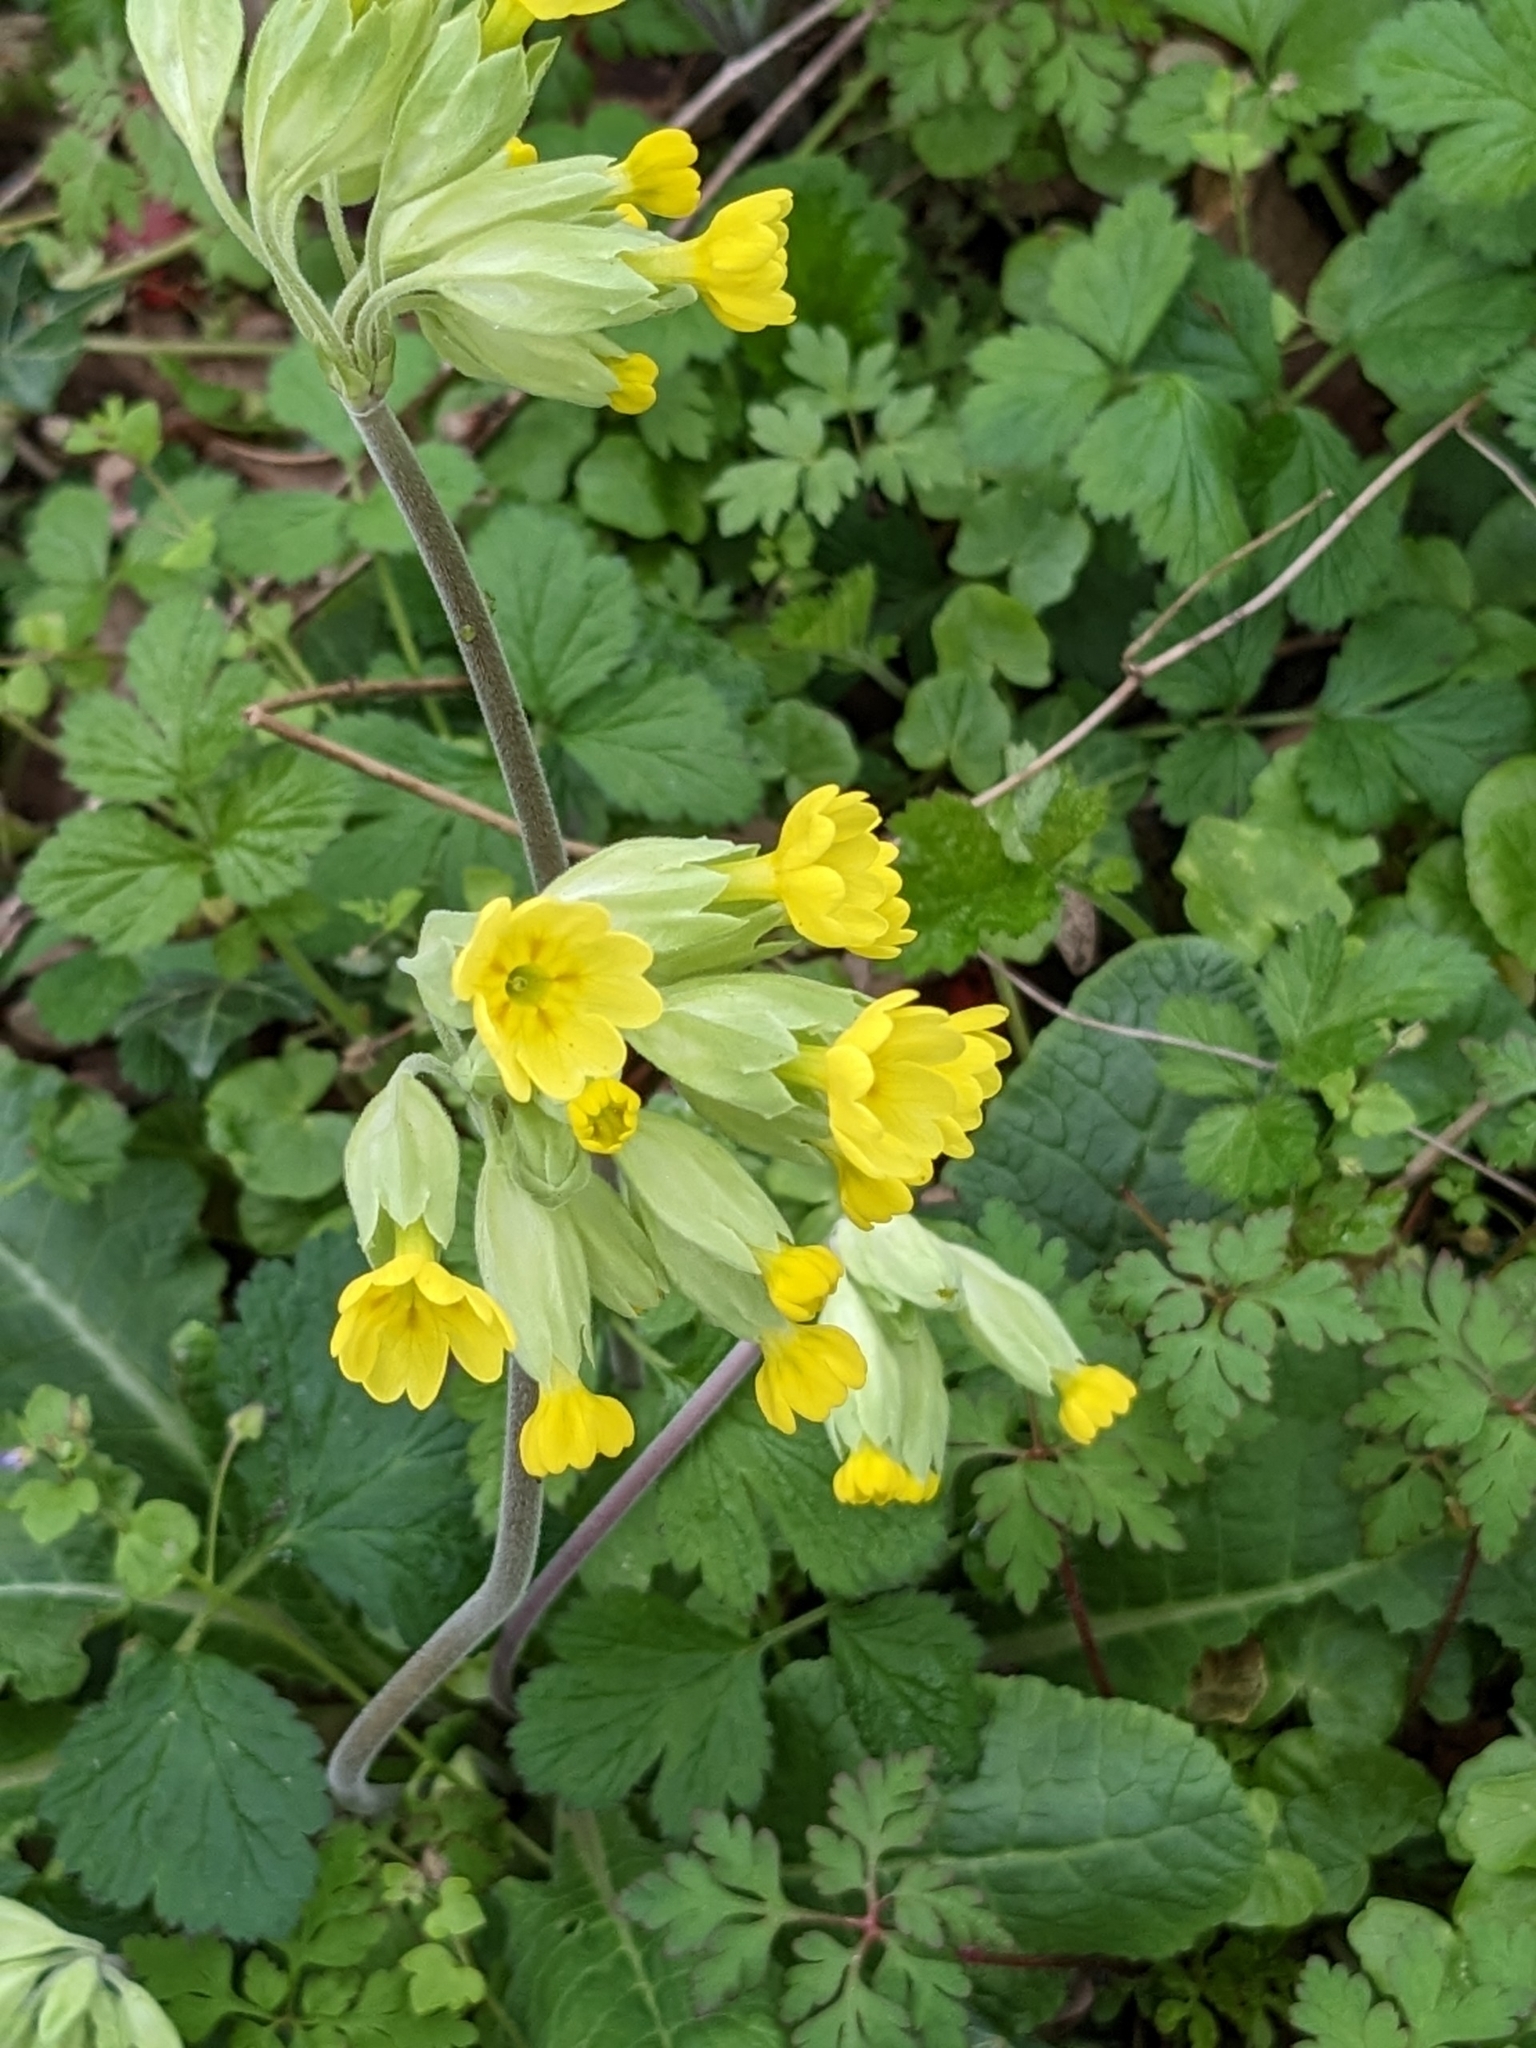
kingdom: Plantae
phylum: Tracheophyta
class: Magnoliopsida
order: Ericales
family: Primulaceae
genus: Primula
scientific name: Primula veris
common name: Cowslip
